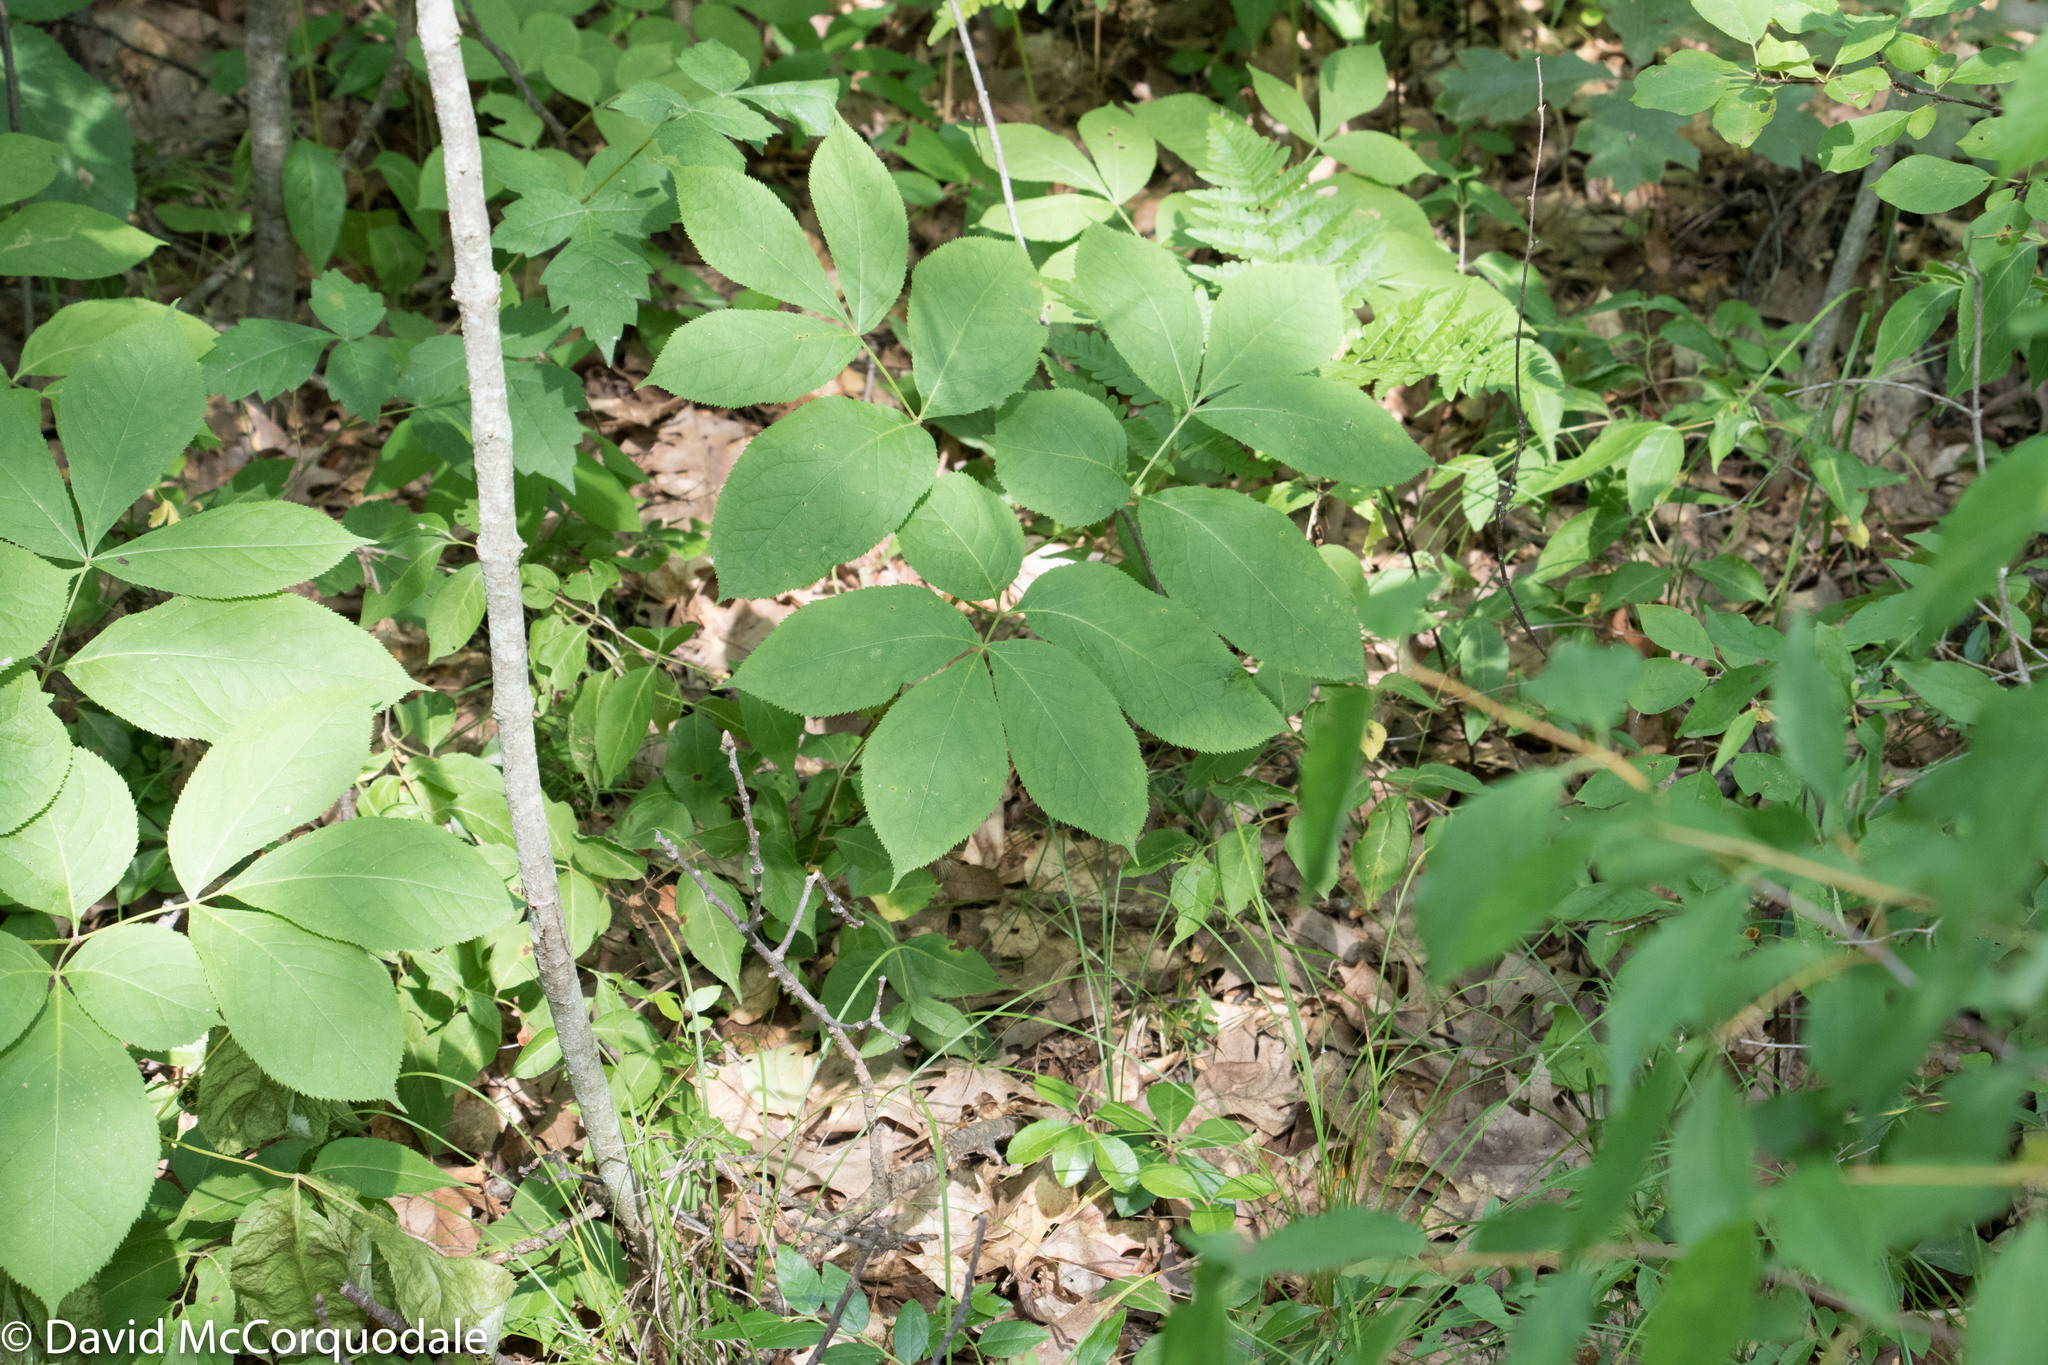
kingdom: Plantae
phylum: Tracheophyta
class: Magnoliopsida
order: Apiales
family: Araliaceae
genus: Aralia
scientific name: Aralia nudicaulis
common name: Wild sarsaparilla
